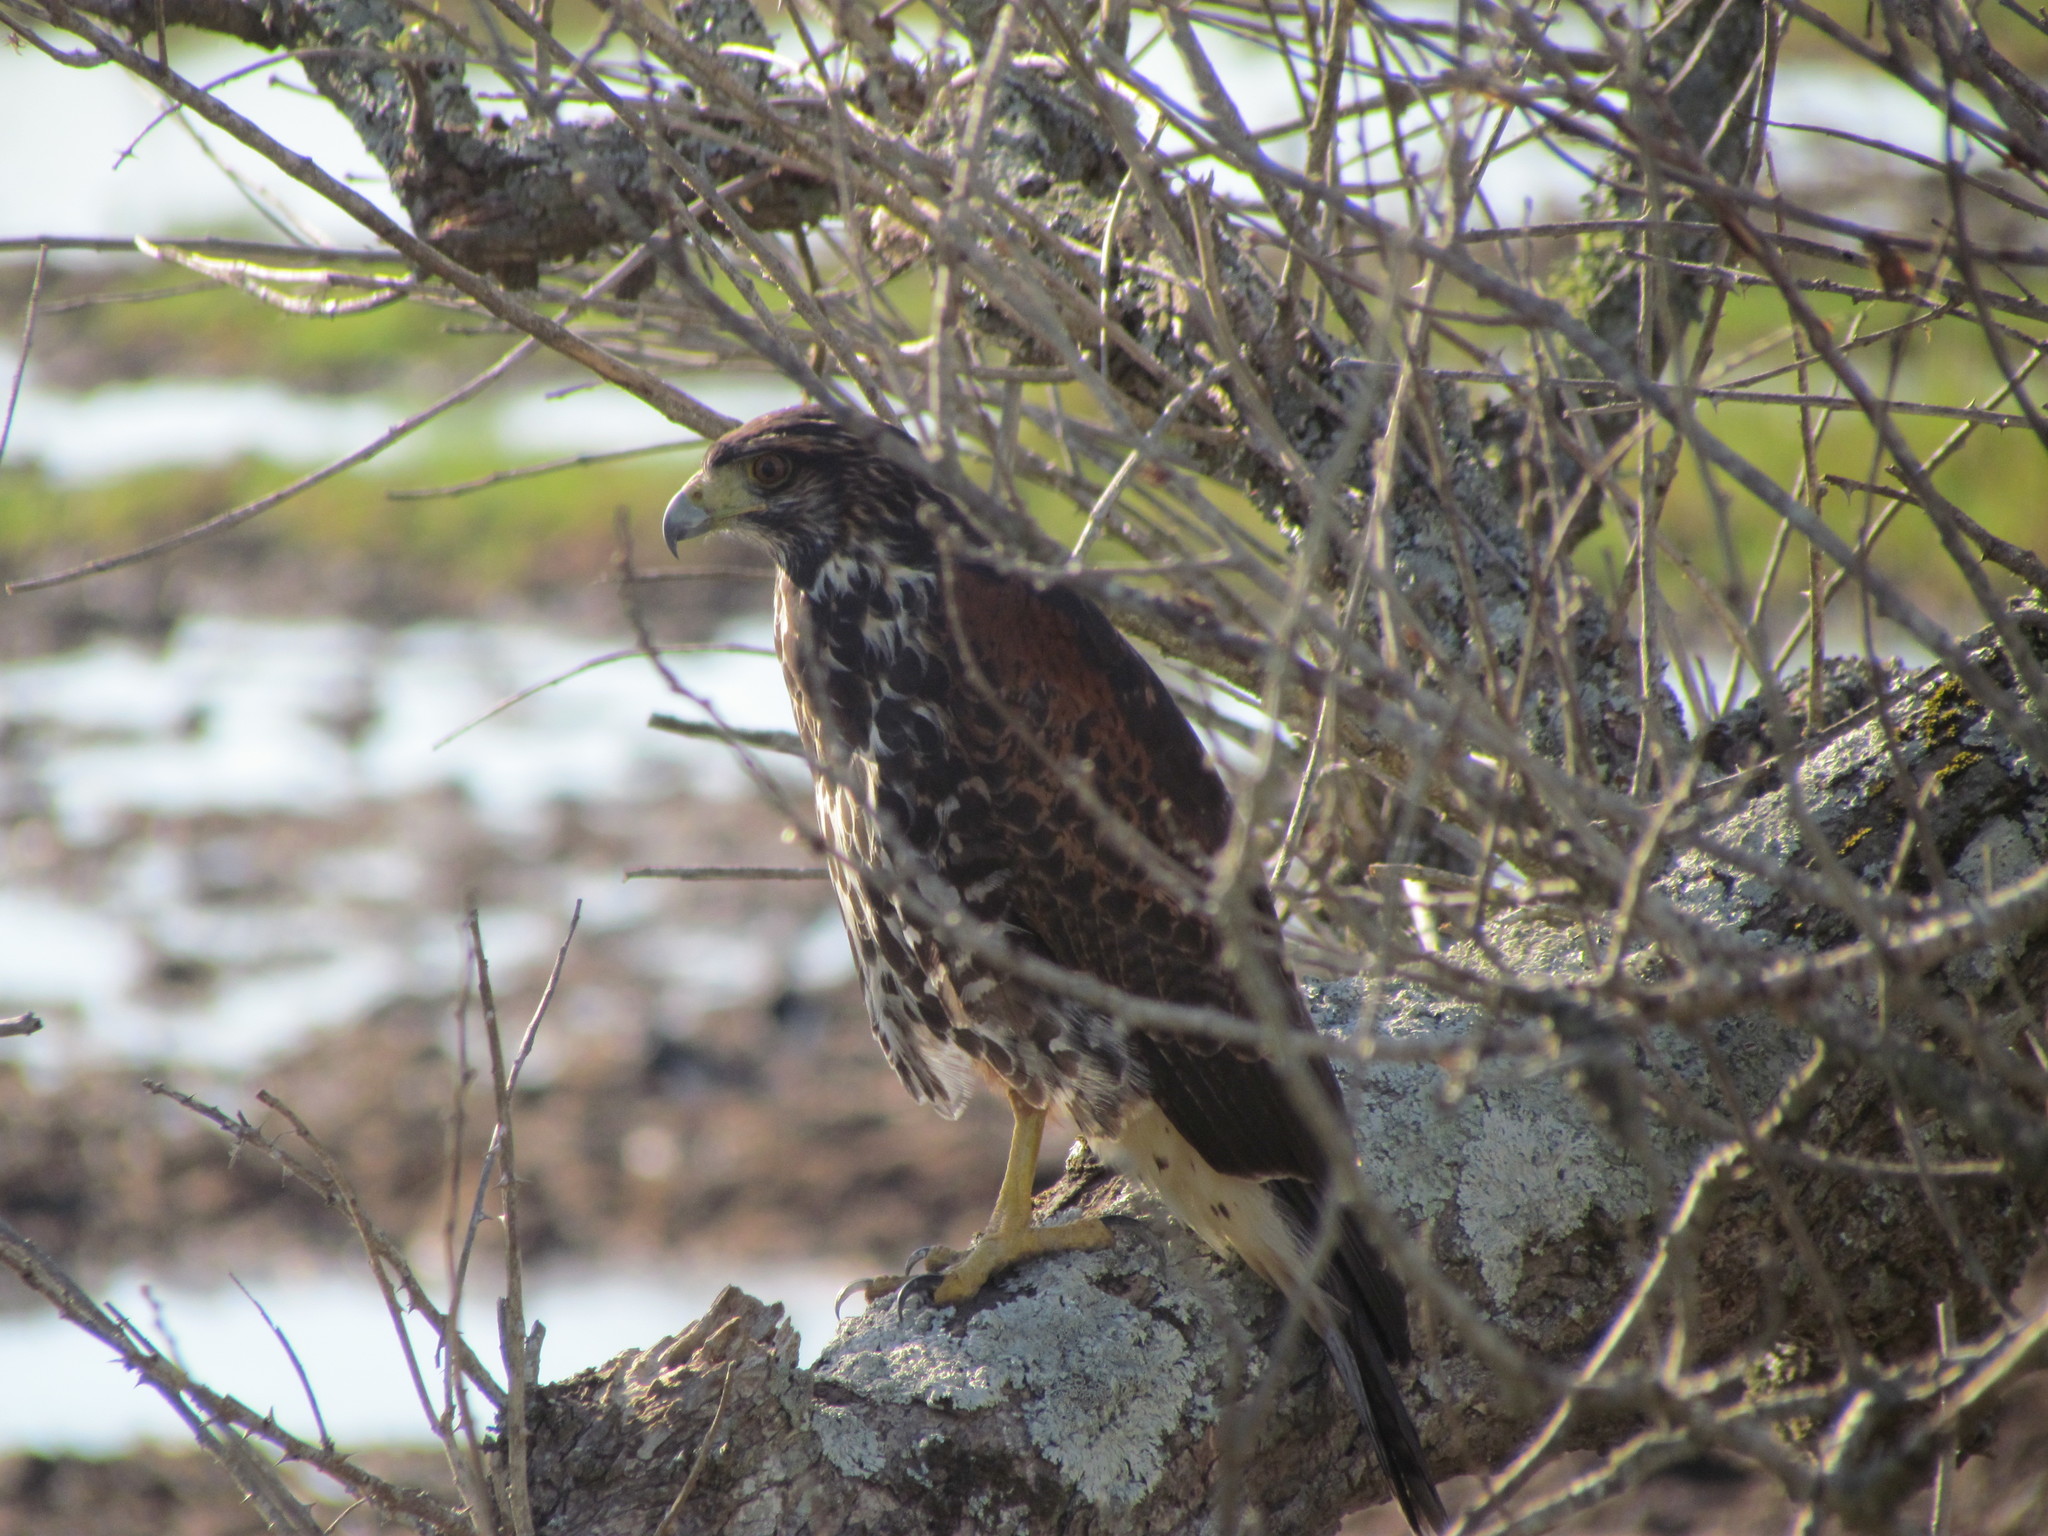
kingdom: Animalia
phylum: Chordata
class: Aves
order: Accipitriformes
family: Accipitridae
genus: Parabuteo
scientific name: Parabuteo unicinctus
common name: Harris's hawk
